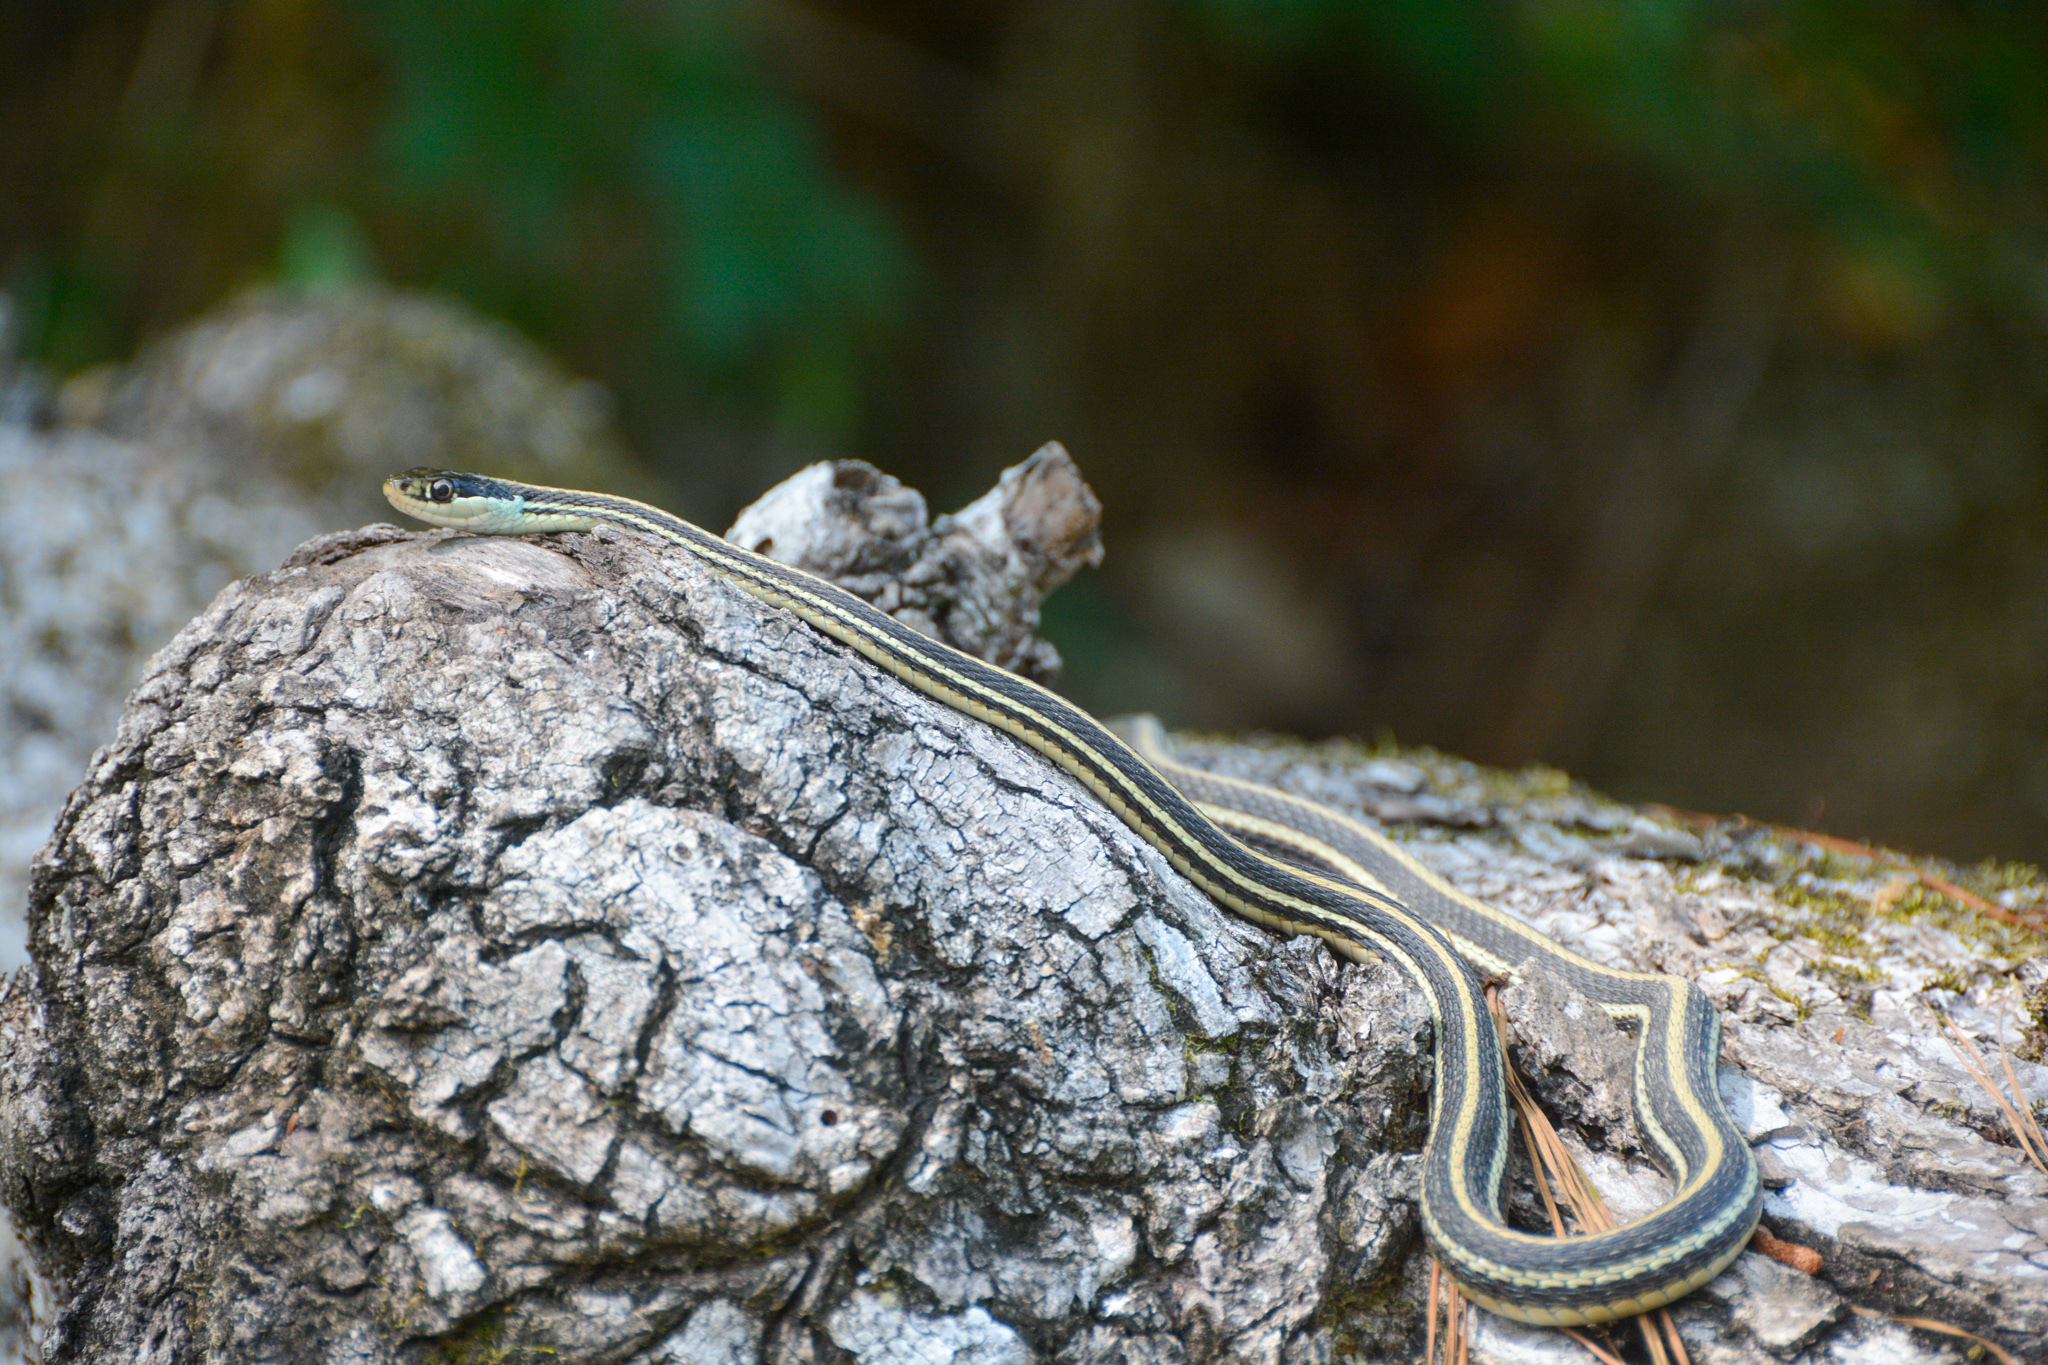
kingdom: Animalia
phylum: Chordata
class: Squamata
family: Colubridae
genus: Thamnophis
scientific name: Thamnophis proximus
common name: Western ribbon snake
